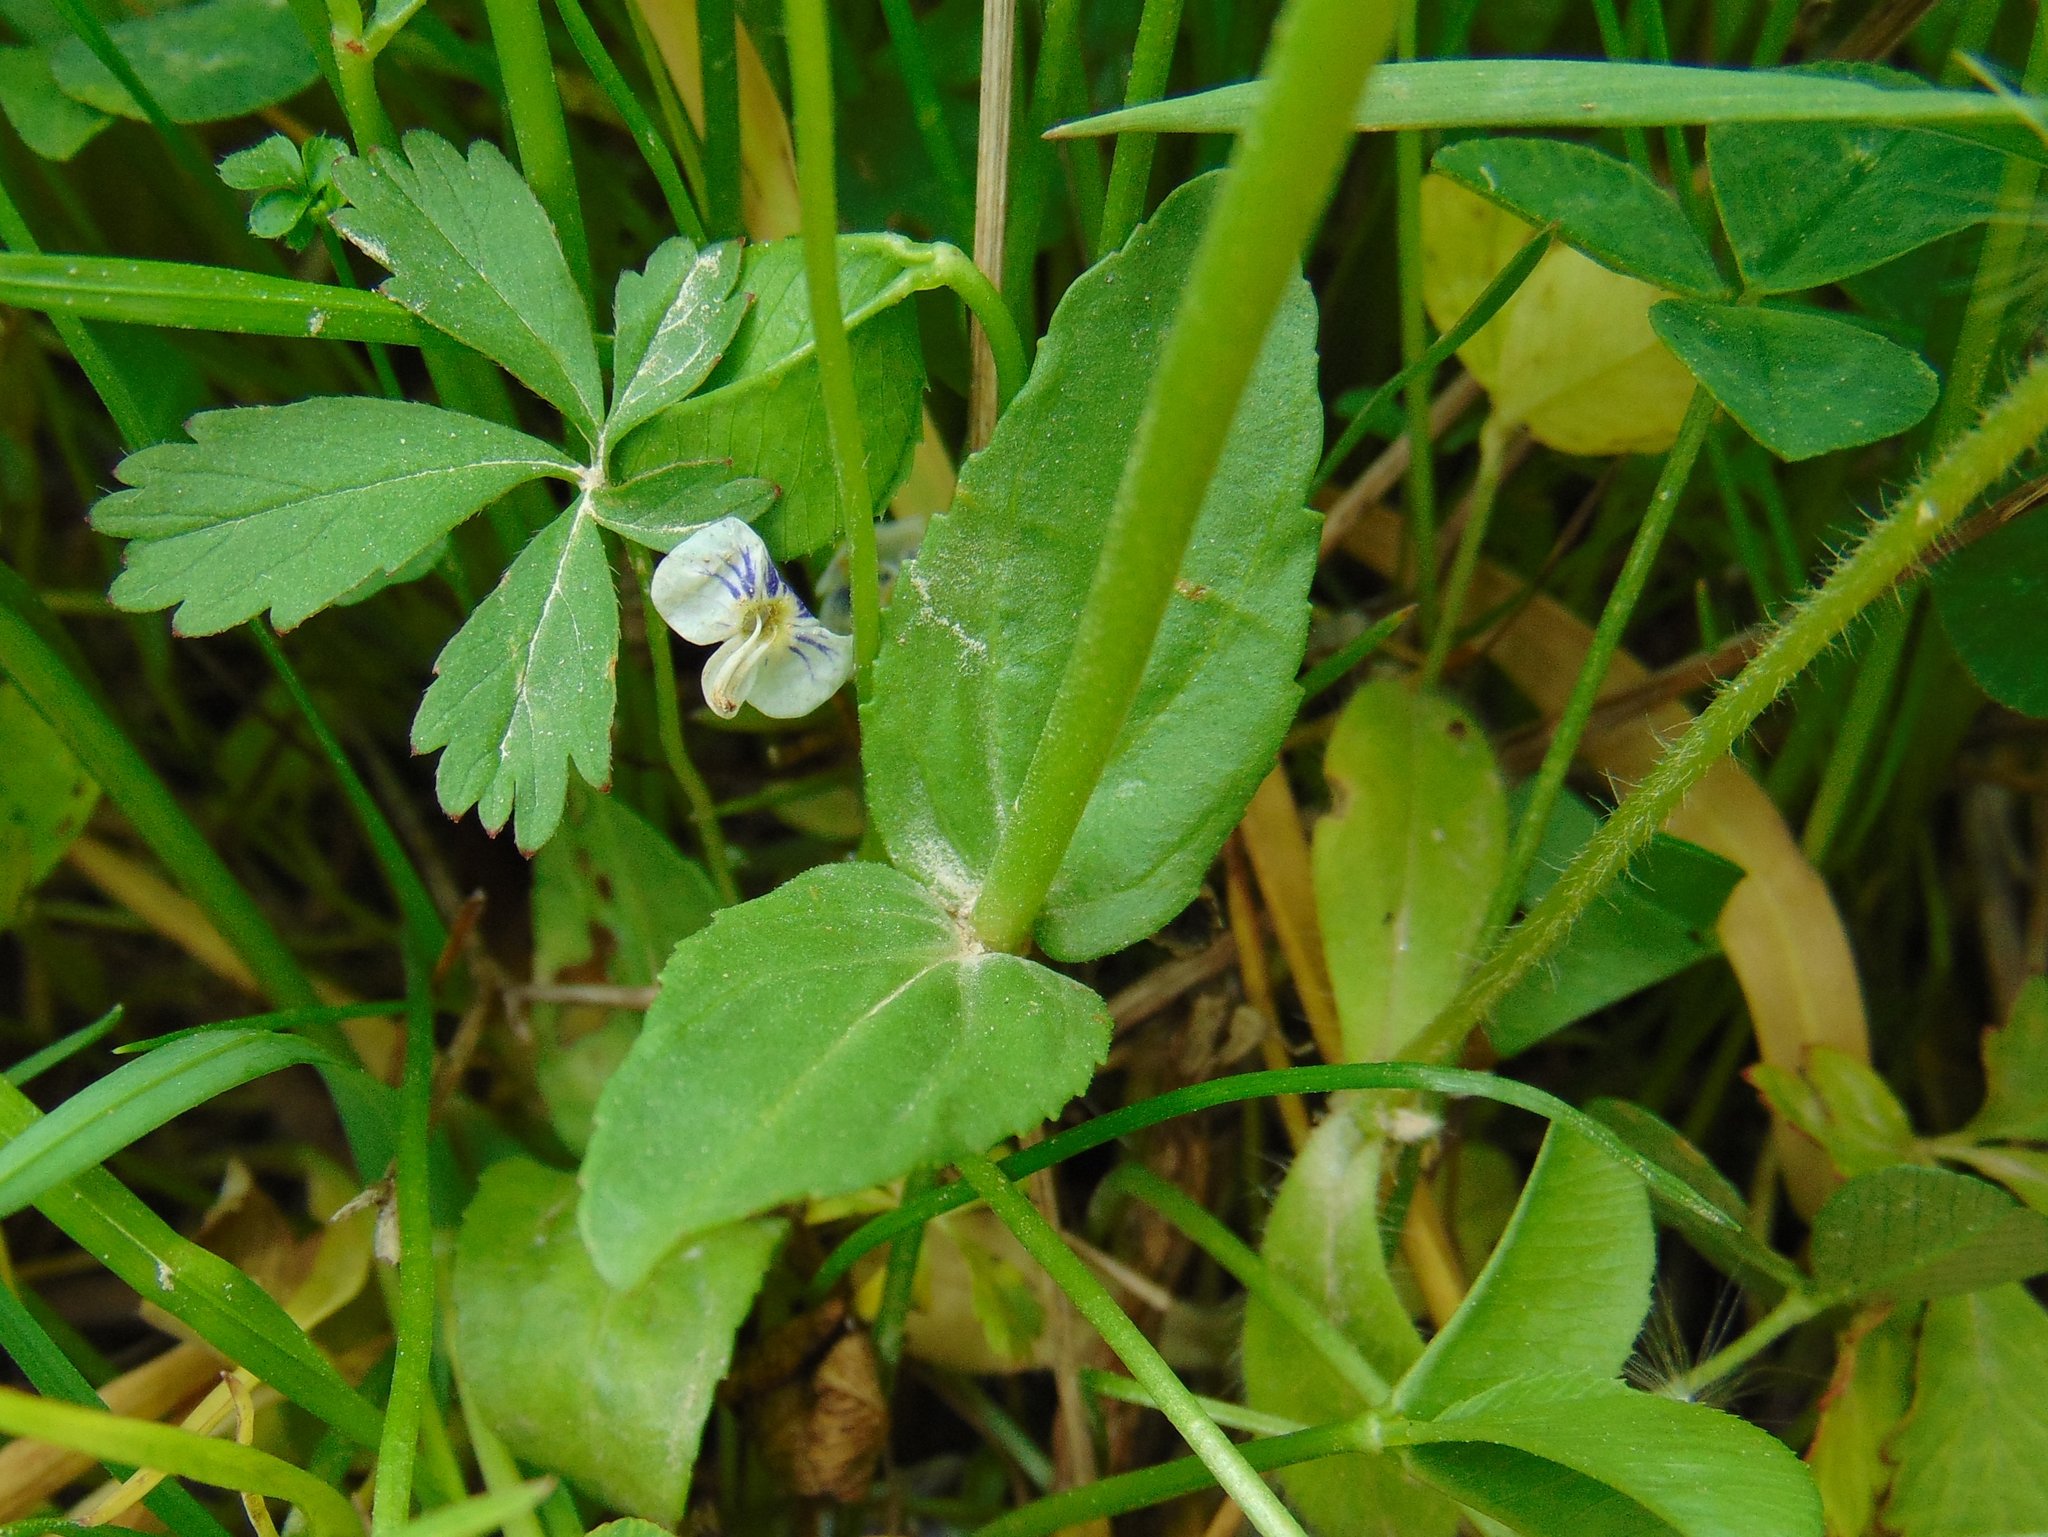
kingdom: Plantae
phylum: Tracheophyta
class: Magnoliopsida
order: Lamiales
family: Plantaginaceae
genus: Veronica
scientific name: Veronica serpyllifolia
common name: Thyme-leaved speedwell
